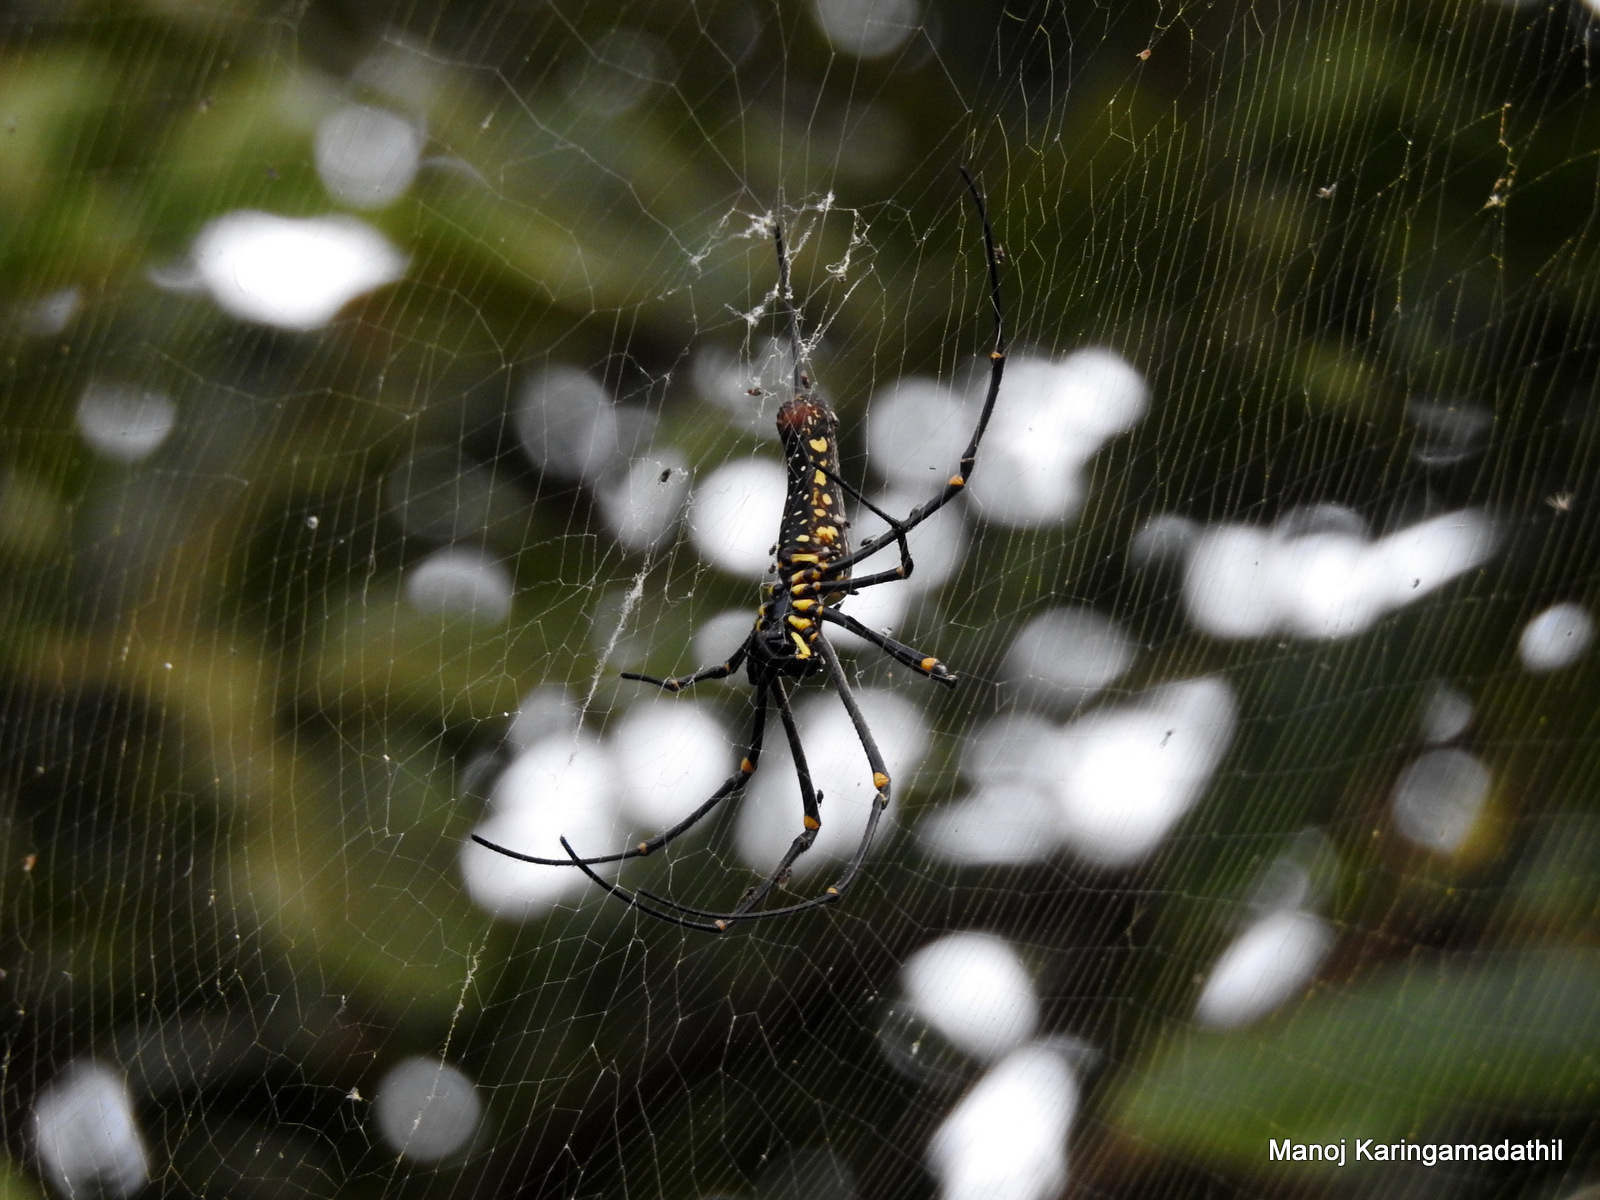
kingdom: Animalia
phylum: Arthropoda
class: Arachnida
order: Araneae
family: Araneidae
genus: Nephila
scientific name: Nephila pilipes
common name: Giant golden orb weaver
